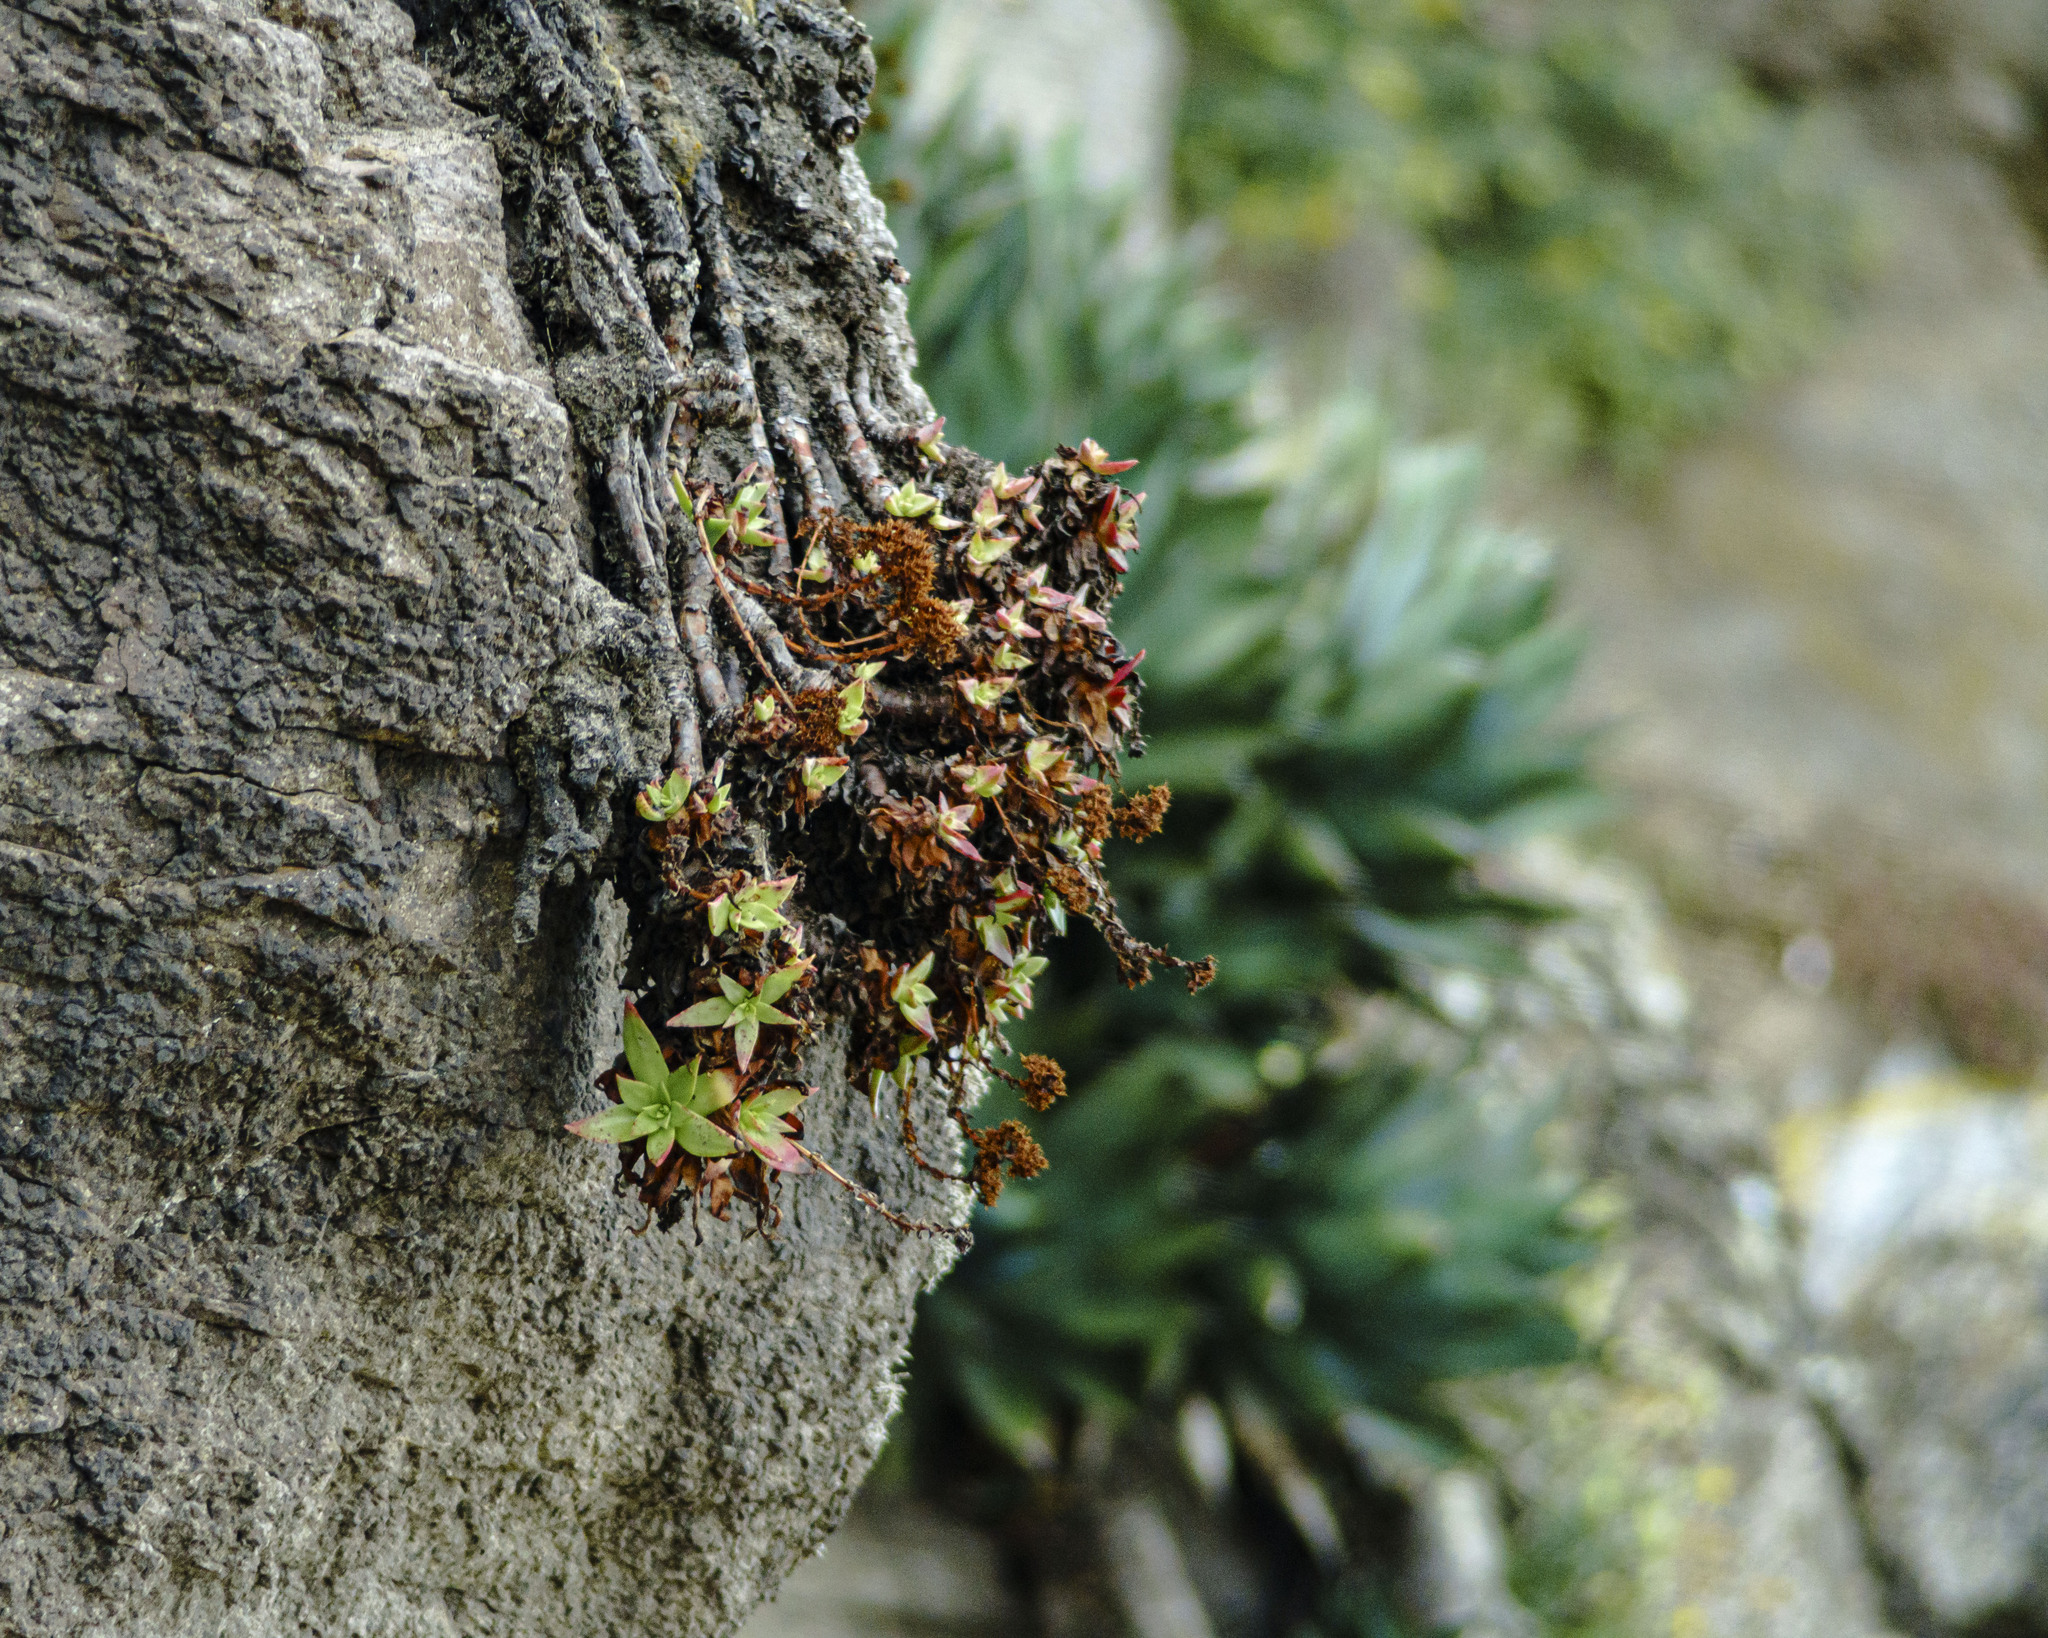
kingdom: Plantae
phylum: Tracheophyta
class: Magnoliopsida
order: Saxifragales
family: Crassulaceae
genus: Dudleya
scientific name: Dudleya formosa
